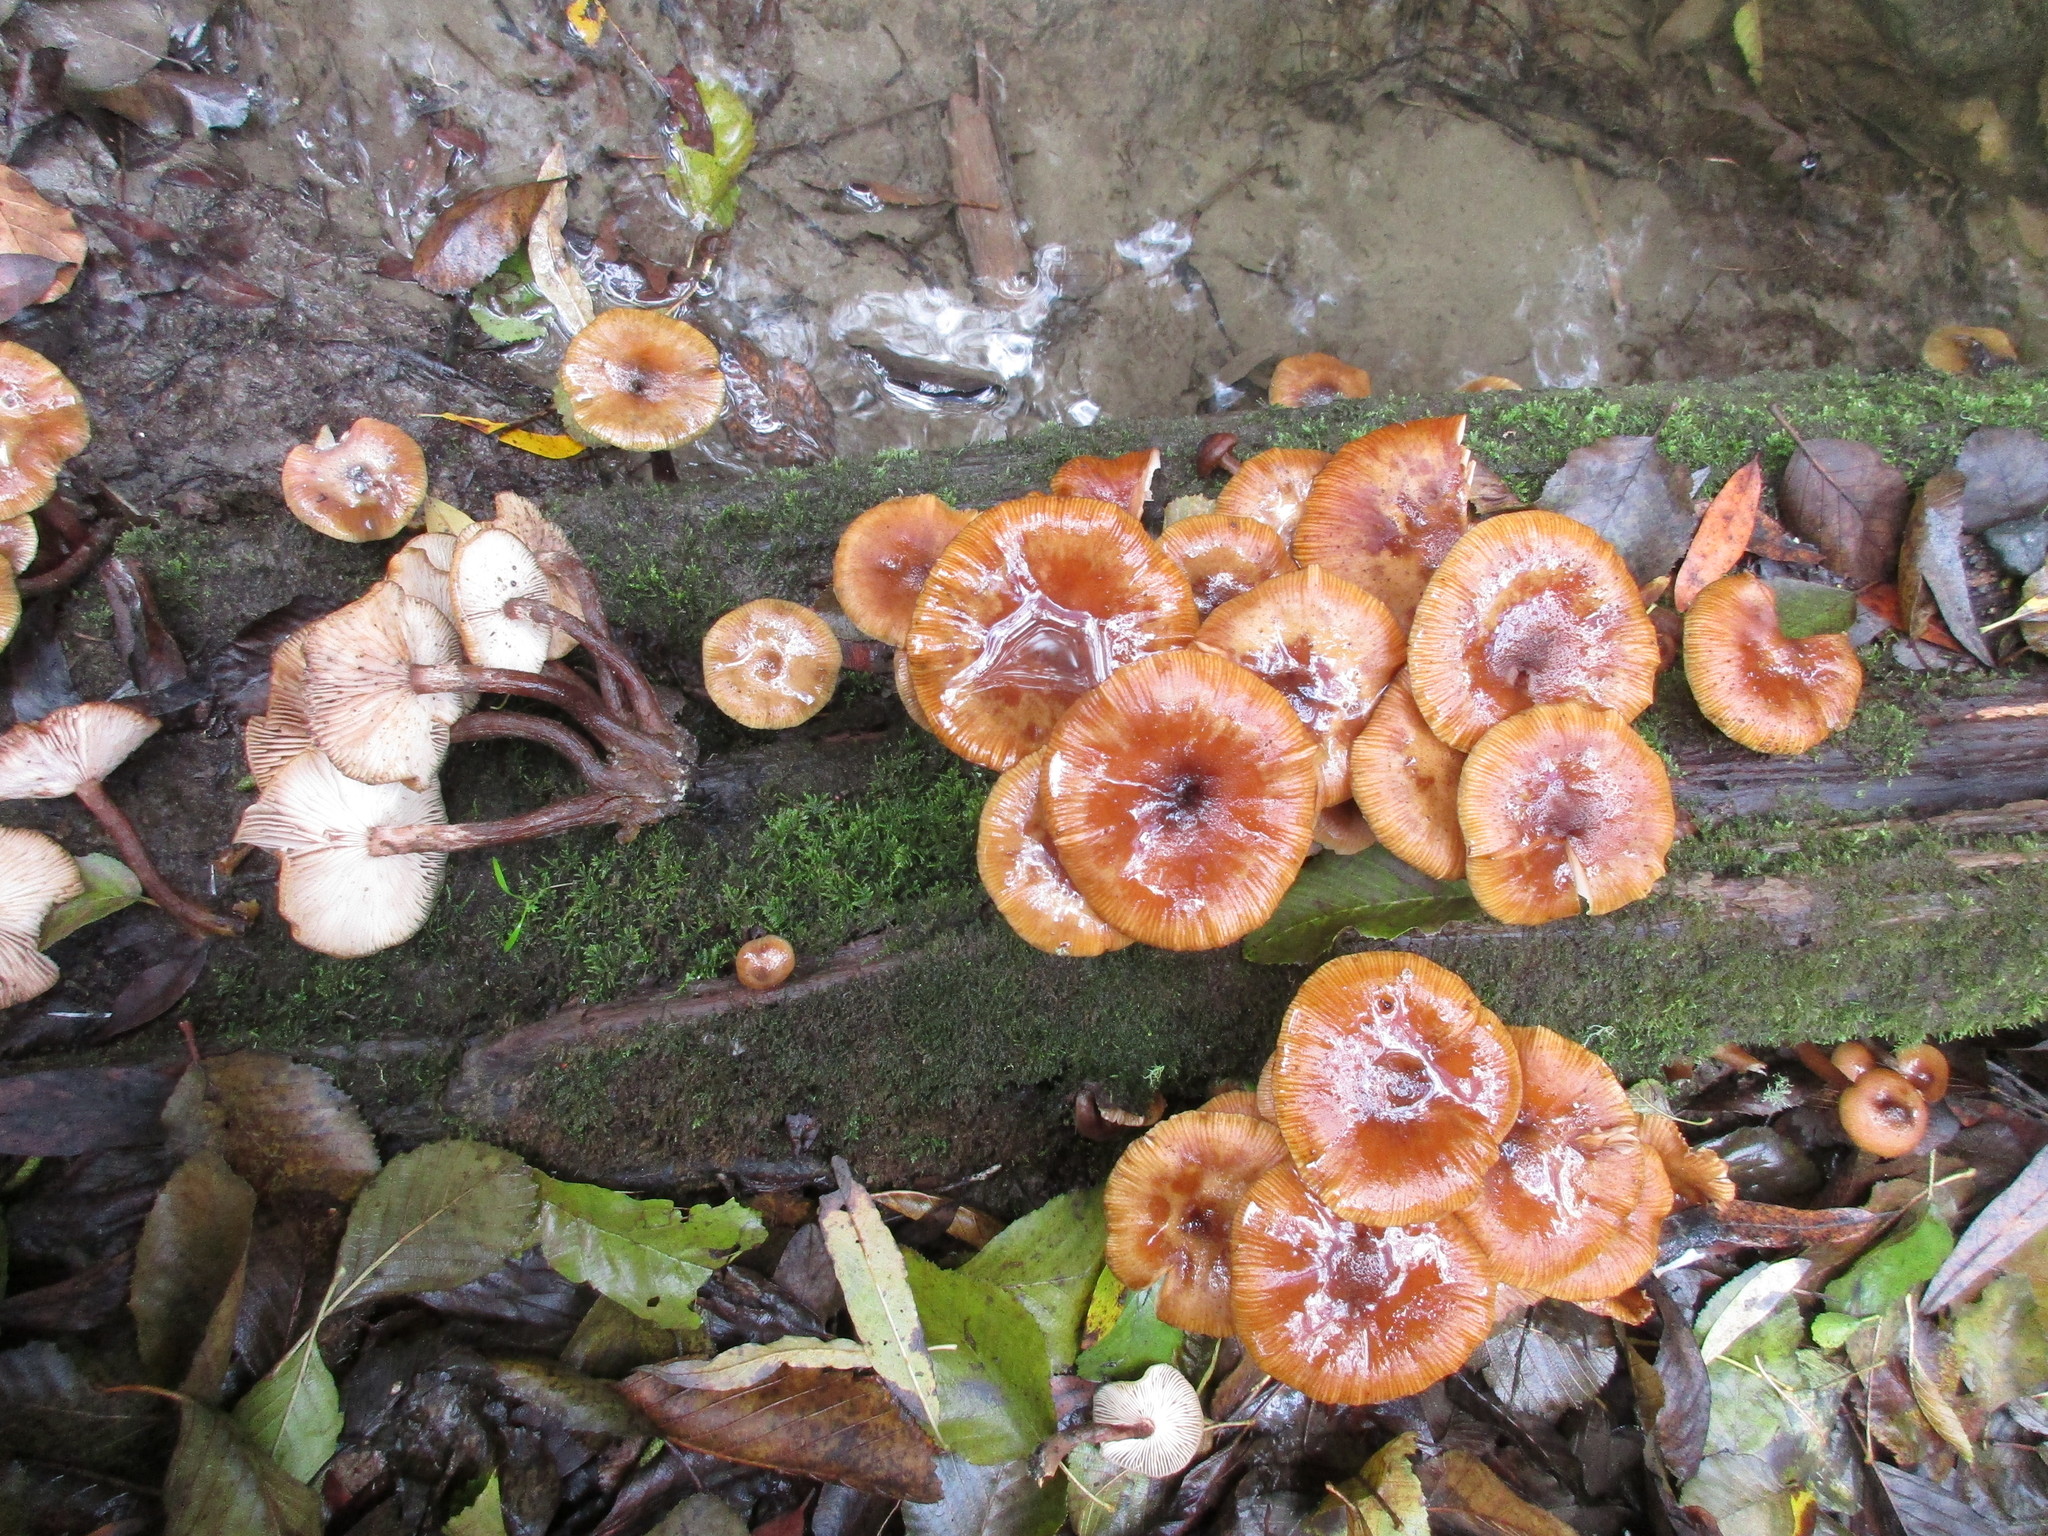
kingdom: Fungi
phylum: Basidiomycota
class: Agaricomycetes
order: Agaricales
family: Physalacriaceae
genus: Armillaria
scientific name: Armillaria nabsnona
